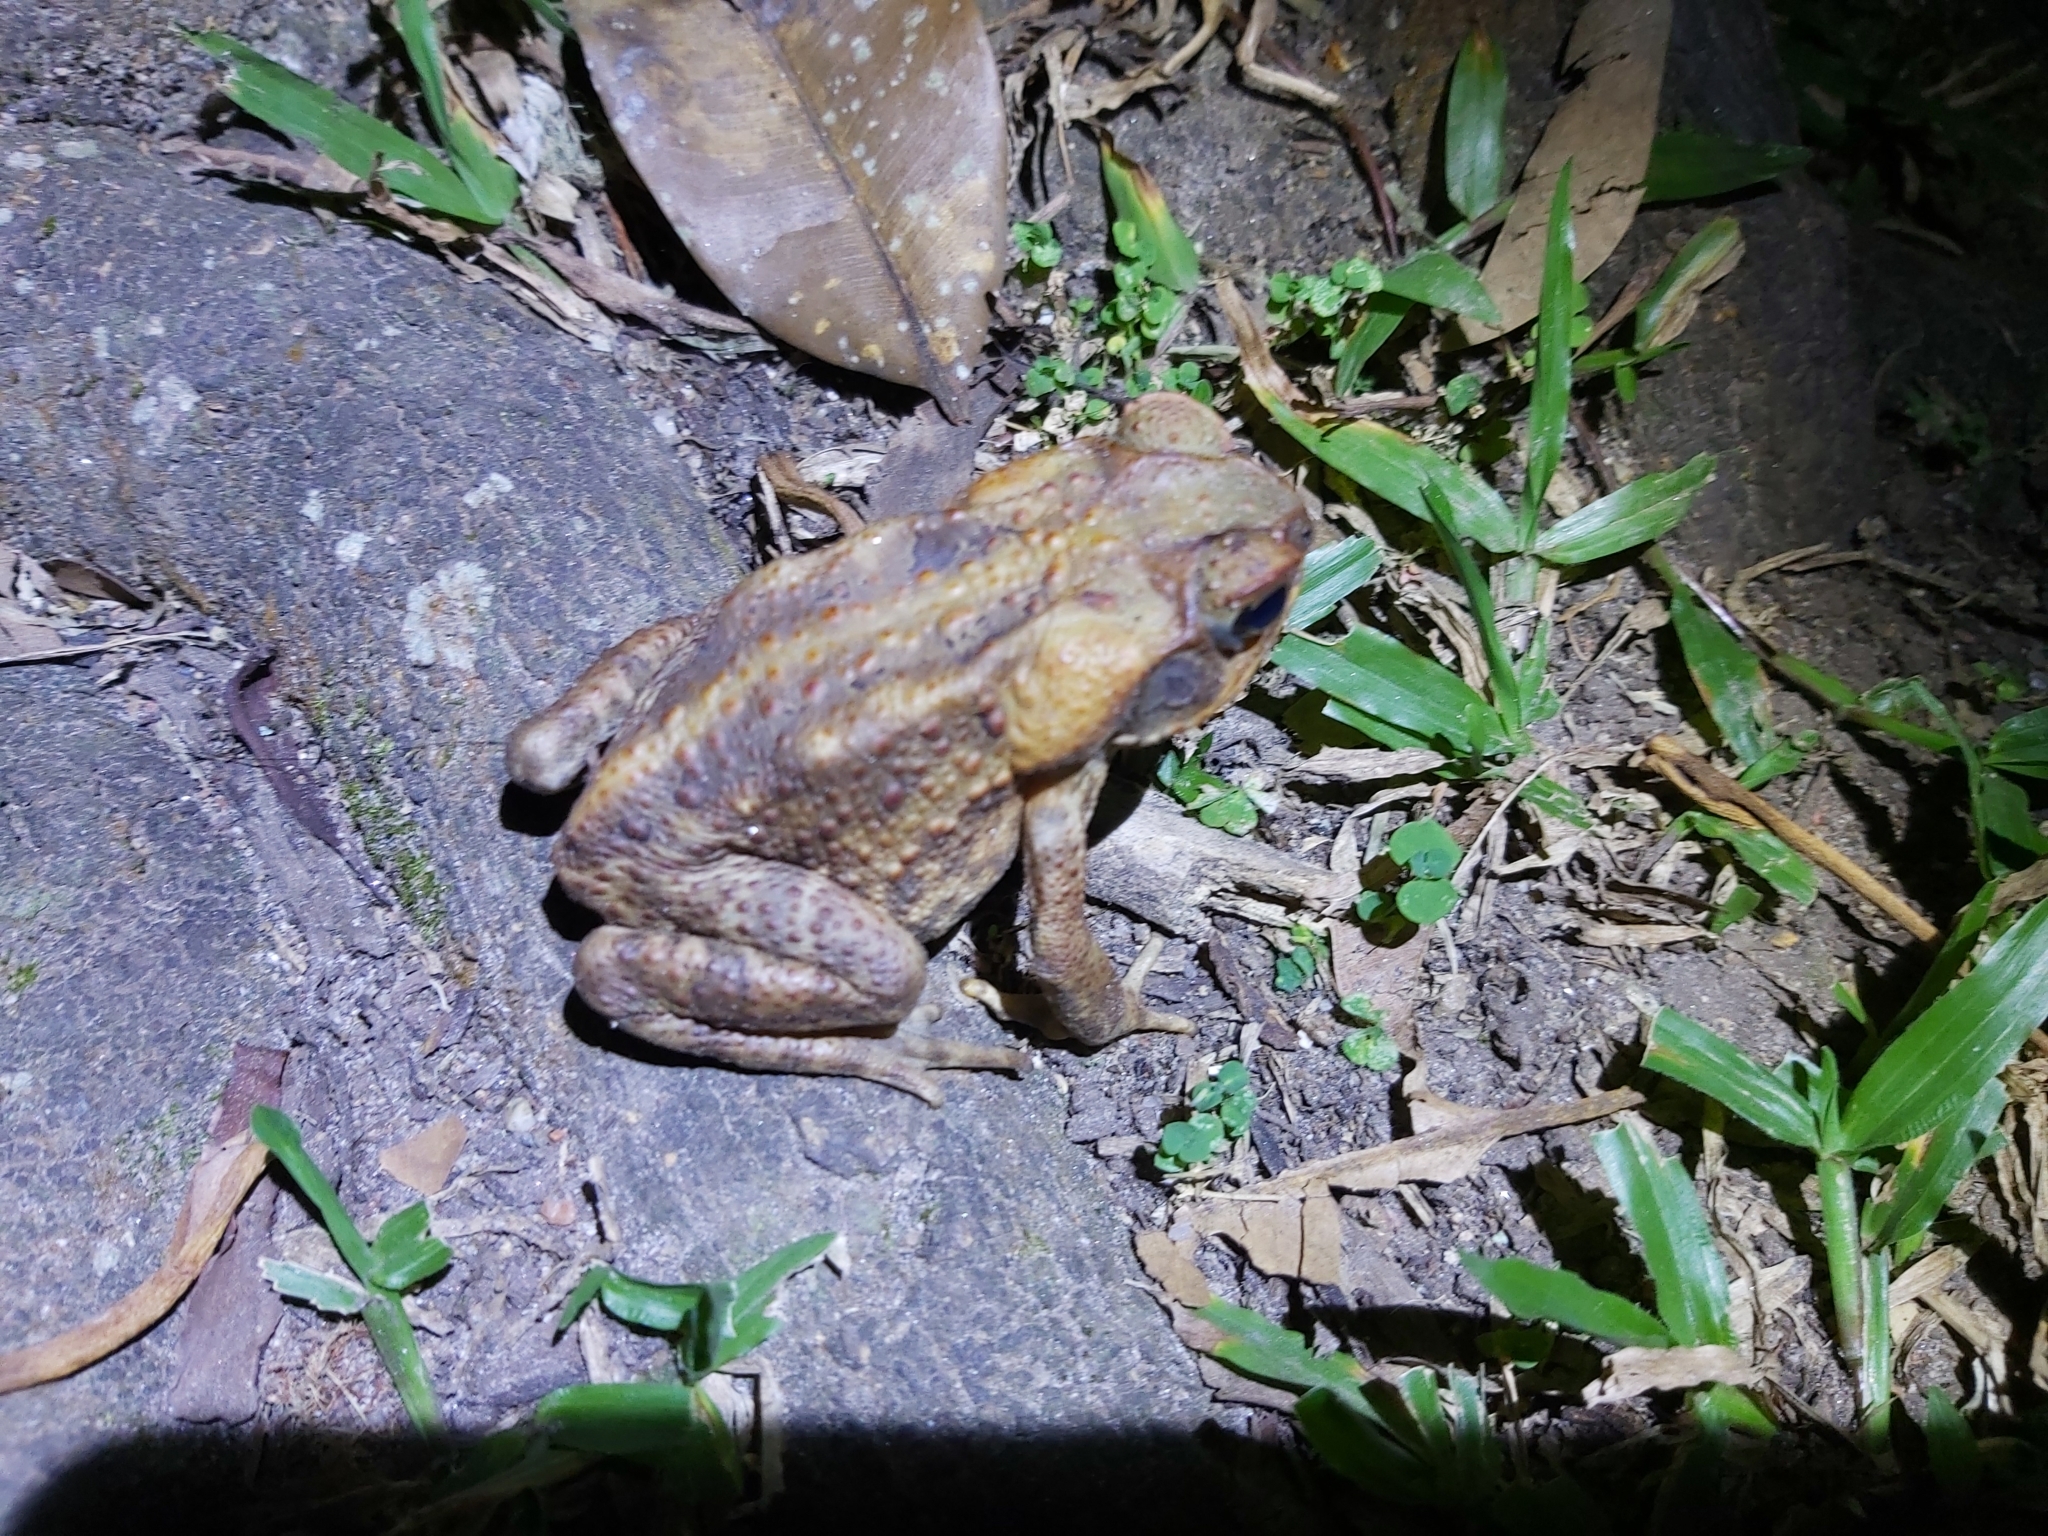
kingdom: Animalia
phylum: Chordata
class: Amphibia
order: Anura
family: Bufonidae
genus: Rhinella
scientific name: Rhinella marina
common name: Cane toad
